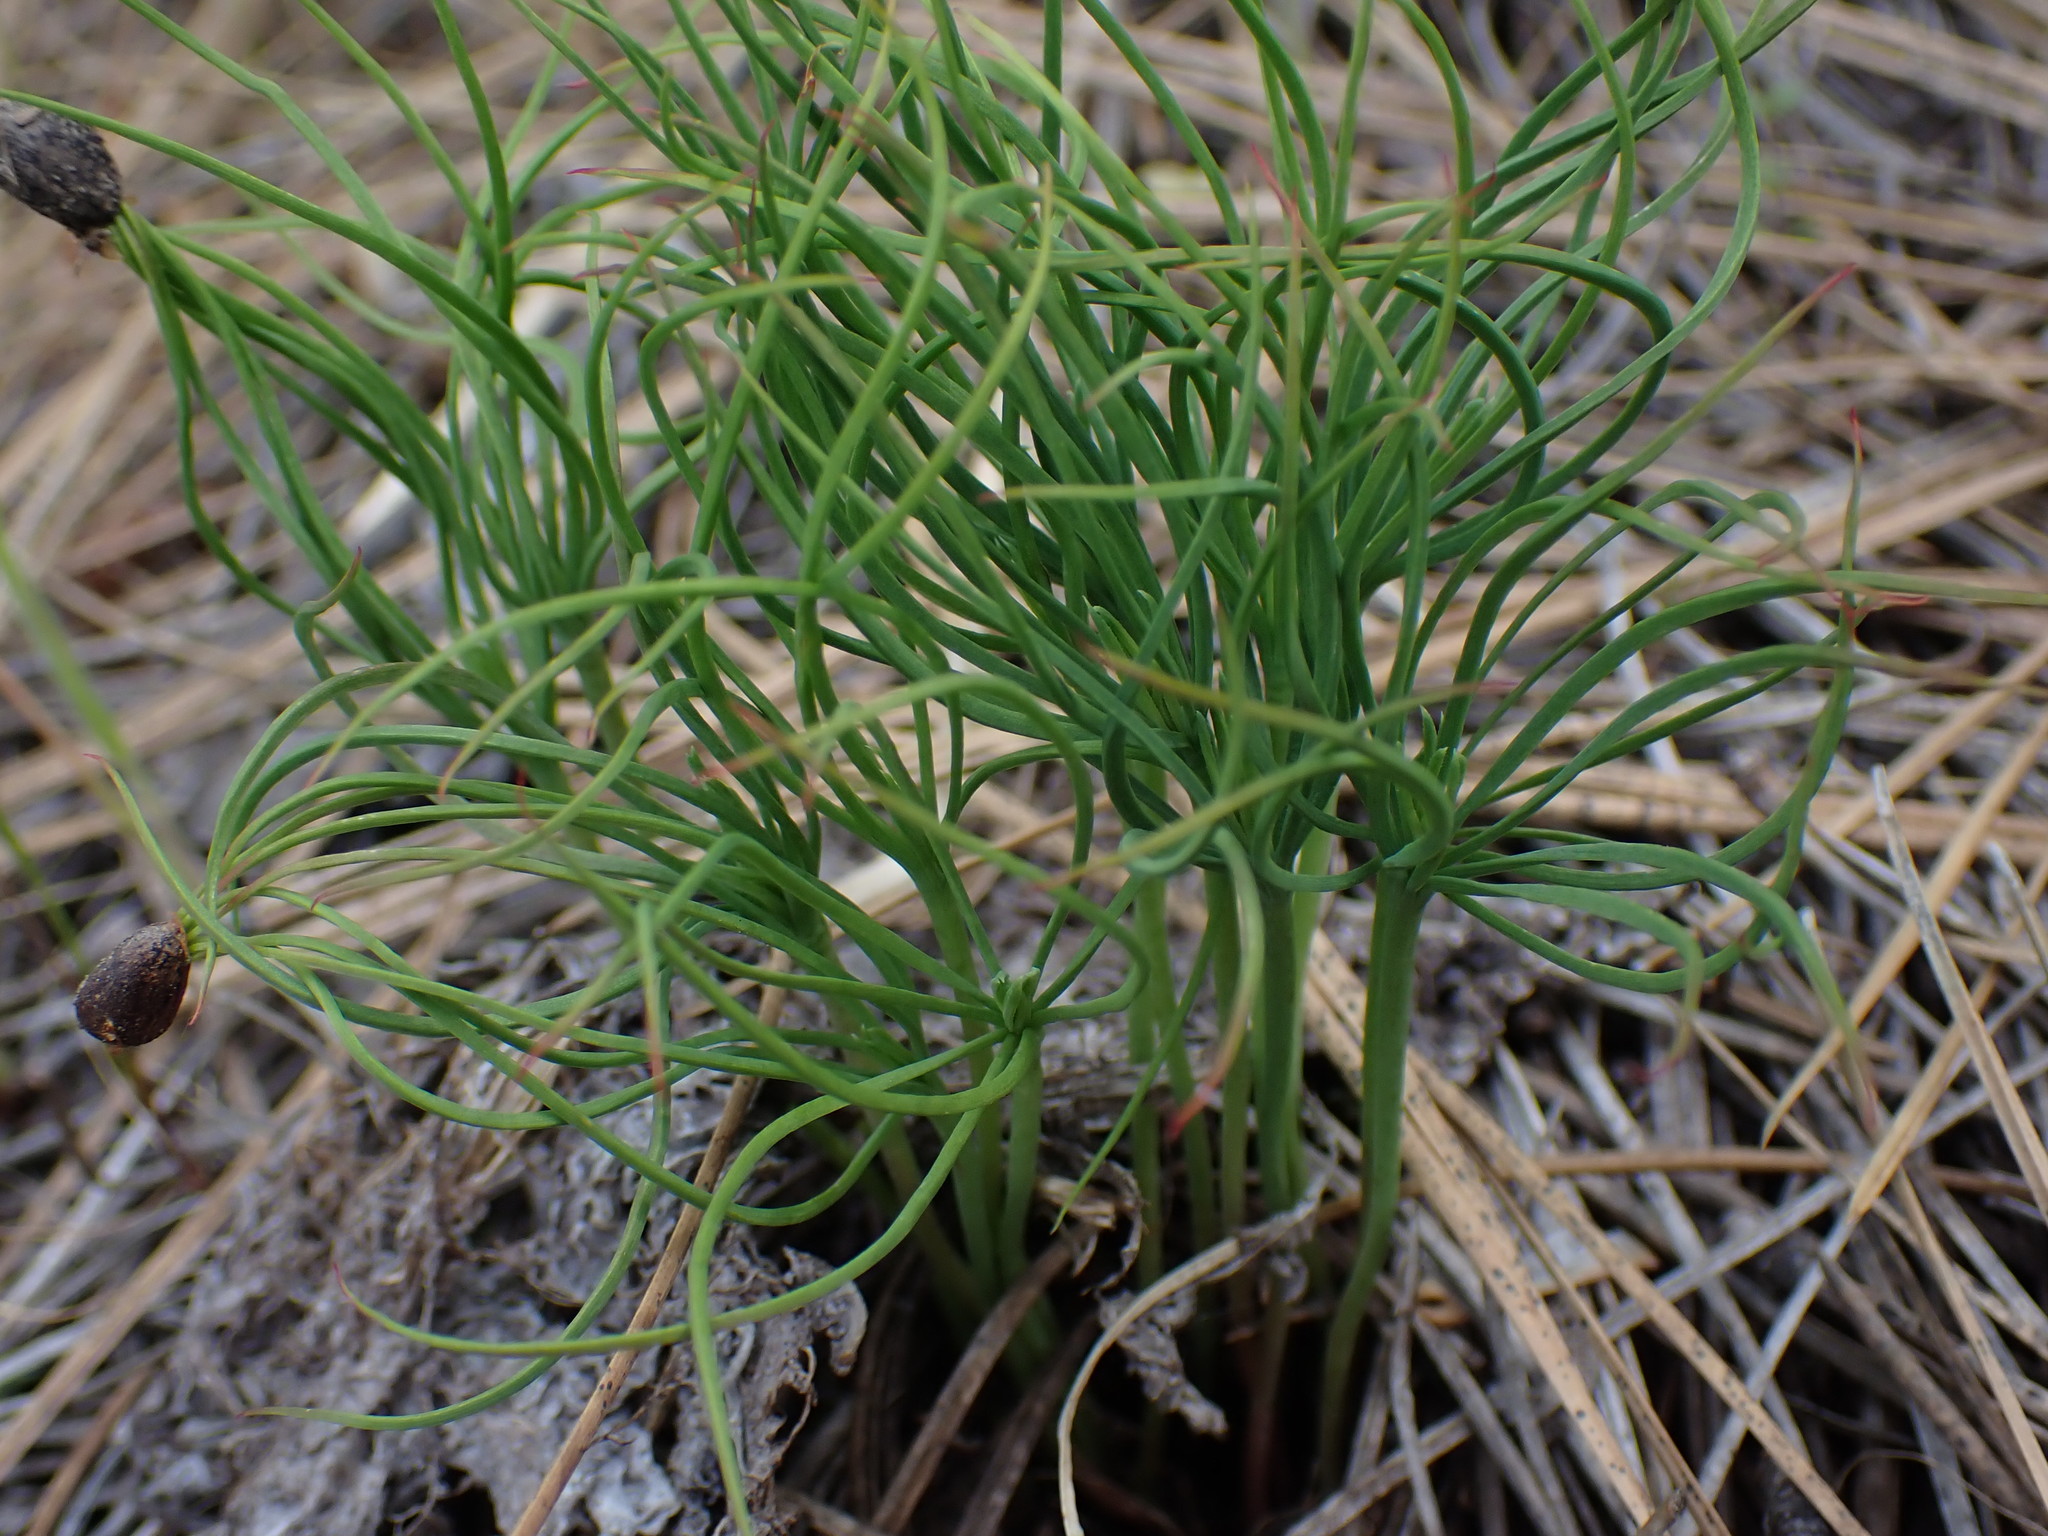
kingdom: Plantae
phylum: Tracheophyta
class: Pinopsida
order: Pinales
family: Pinaceae
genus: Pinus
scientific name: Pinus ponderosa
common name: Western yellow-pine
